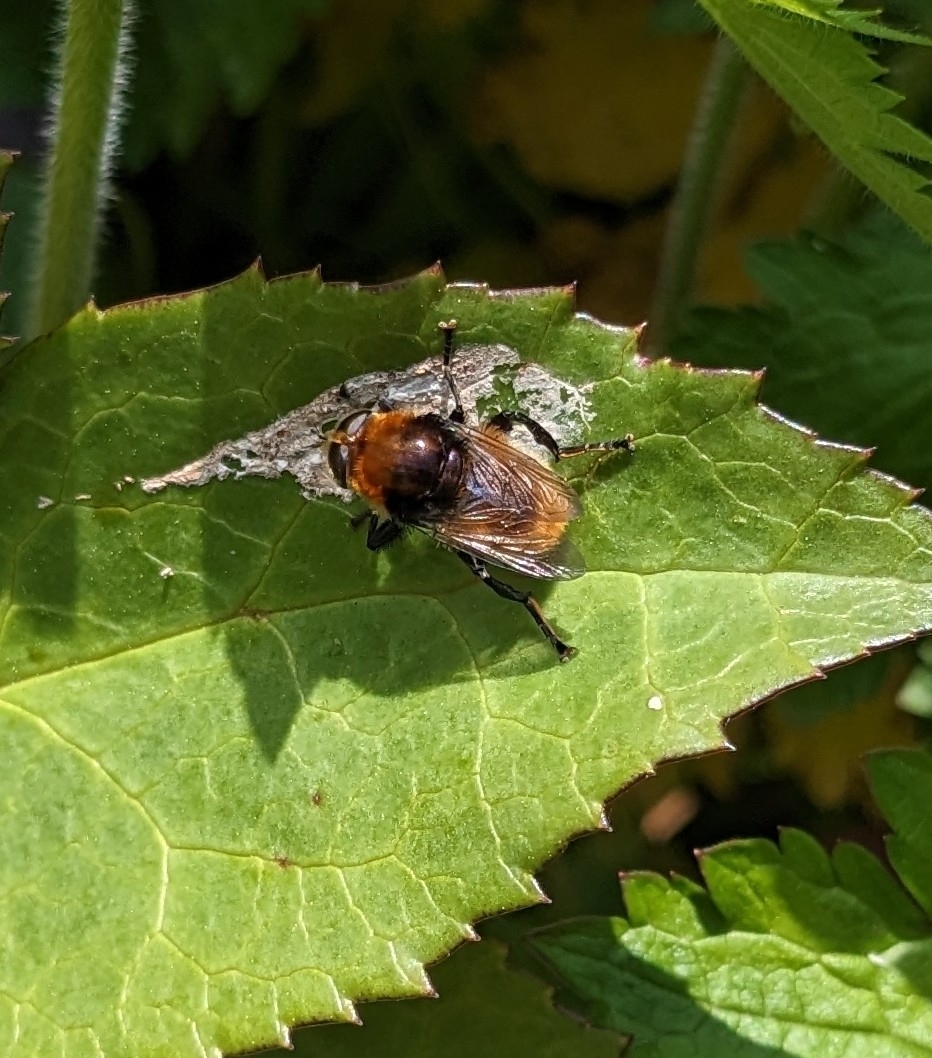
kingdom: Animalia
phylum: Arthropoda
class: Insecta
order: Diptera
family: Syrphidae
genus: Merodon
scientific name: Merodon equestris
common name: Greater bulb-fly
